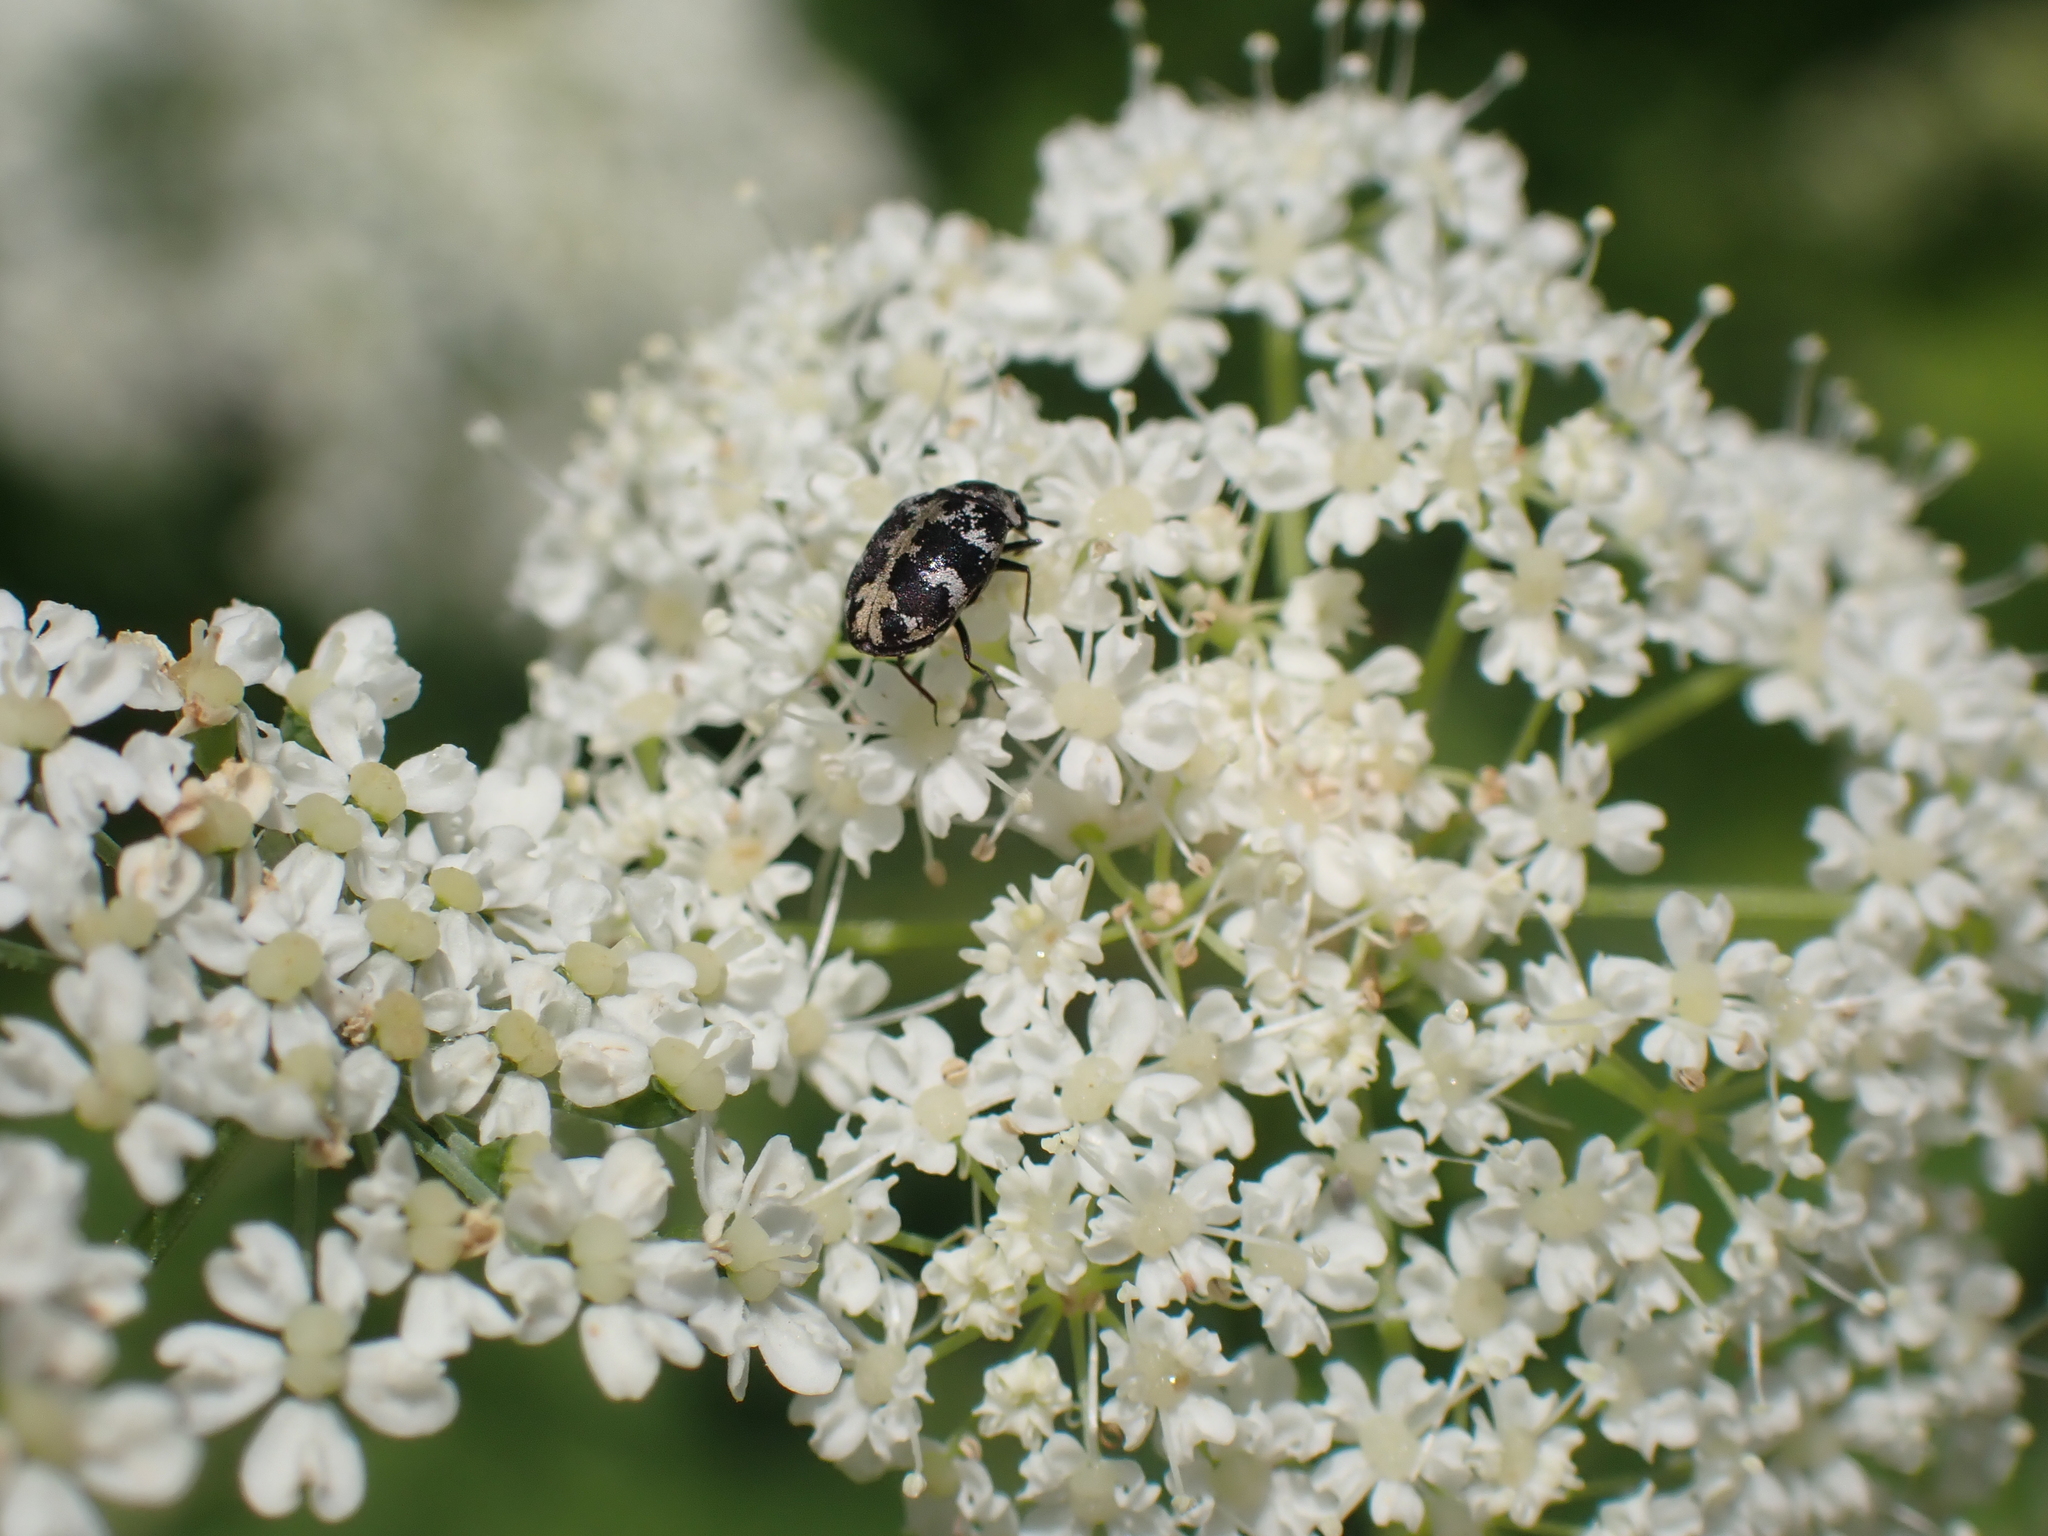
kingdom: Animalia
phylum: Arthropoda
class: Insecta
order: Coleoptera
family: Dermestidae
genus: Anthrenus
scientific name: Anthrenus scrophulariae
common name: Buffalo carpet beetle
